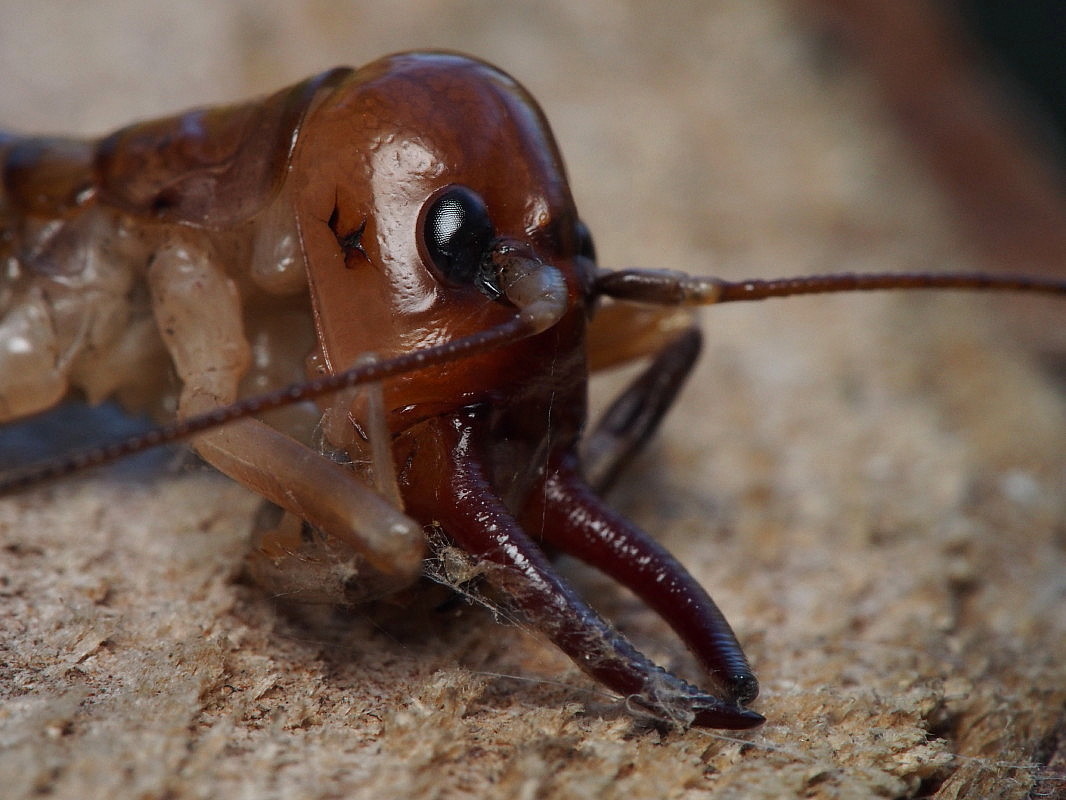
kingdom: Animalia
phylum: Arthropoda
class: Insecta
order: Orthoptera
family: Anostostomatidae
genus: Anisoura
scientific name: Anisoura nicobarica
